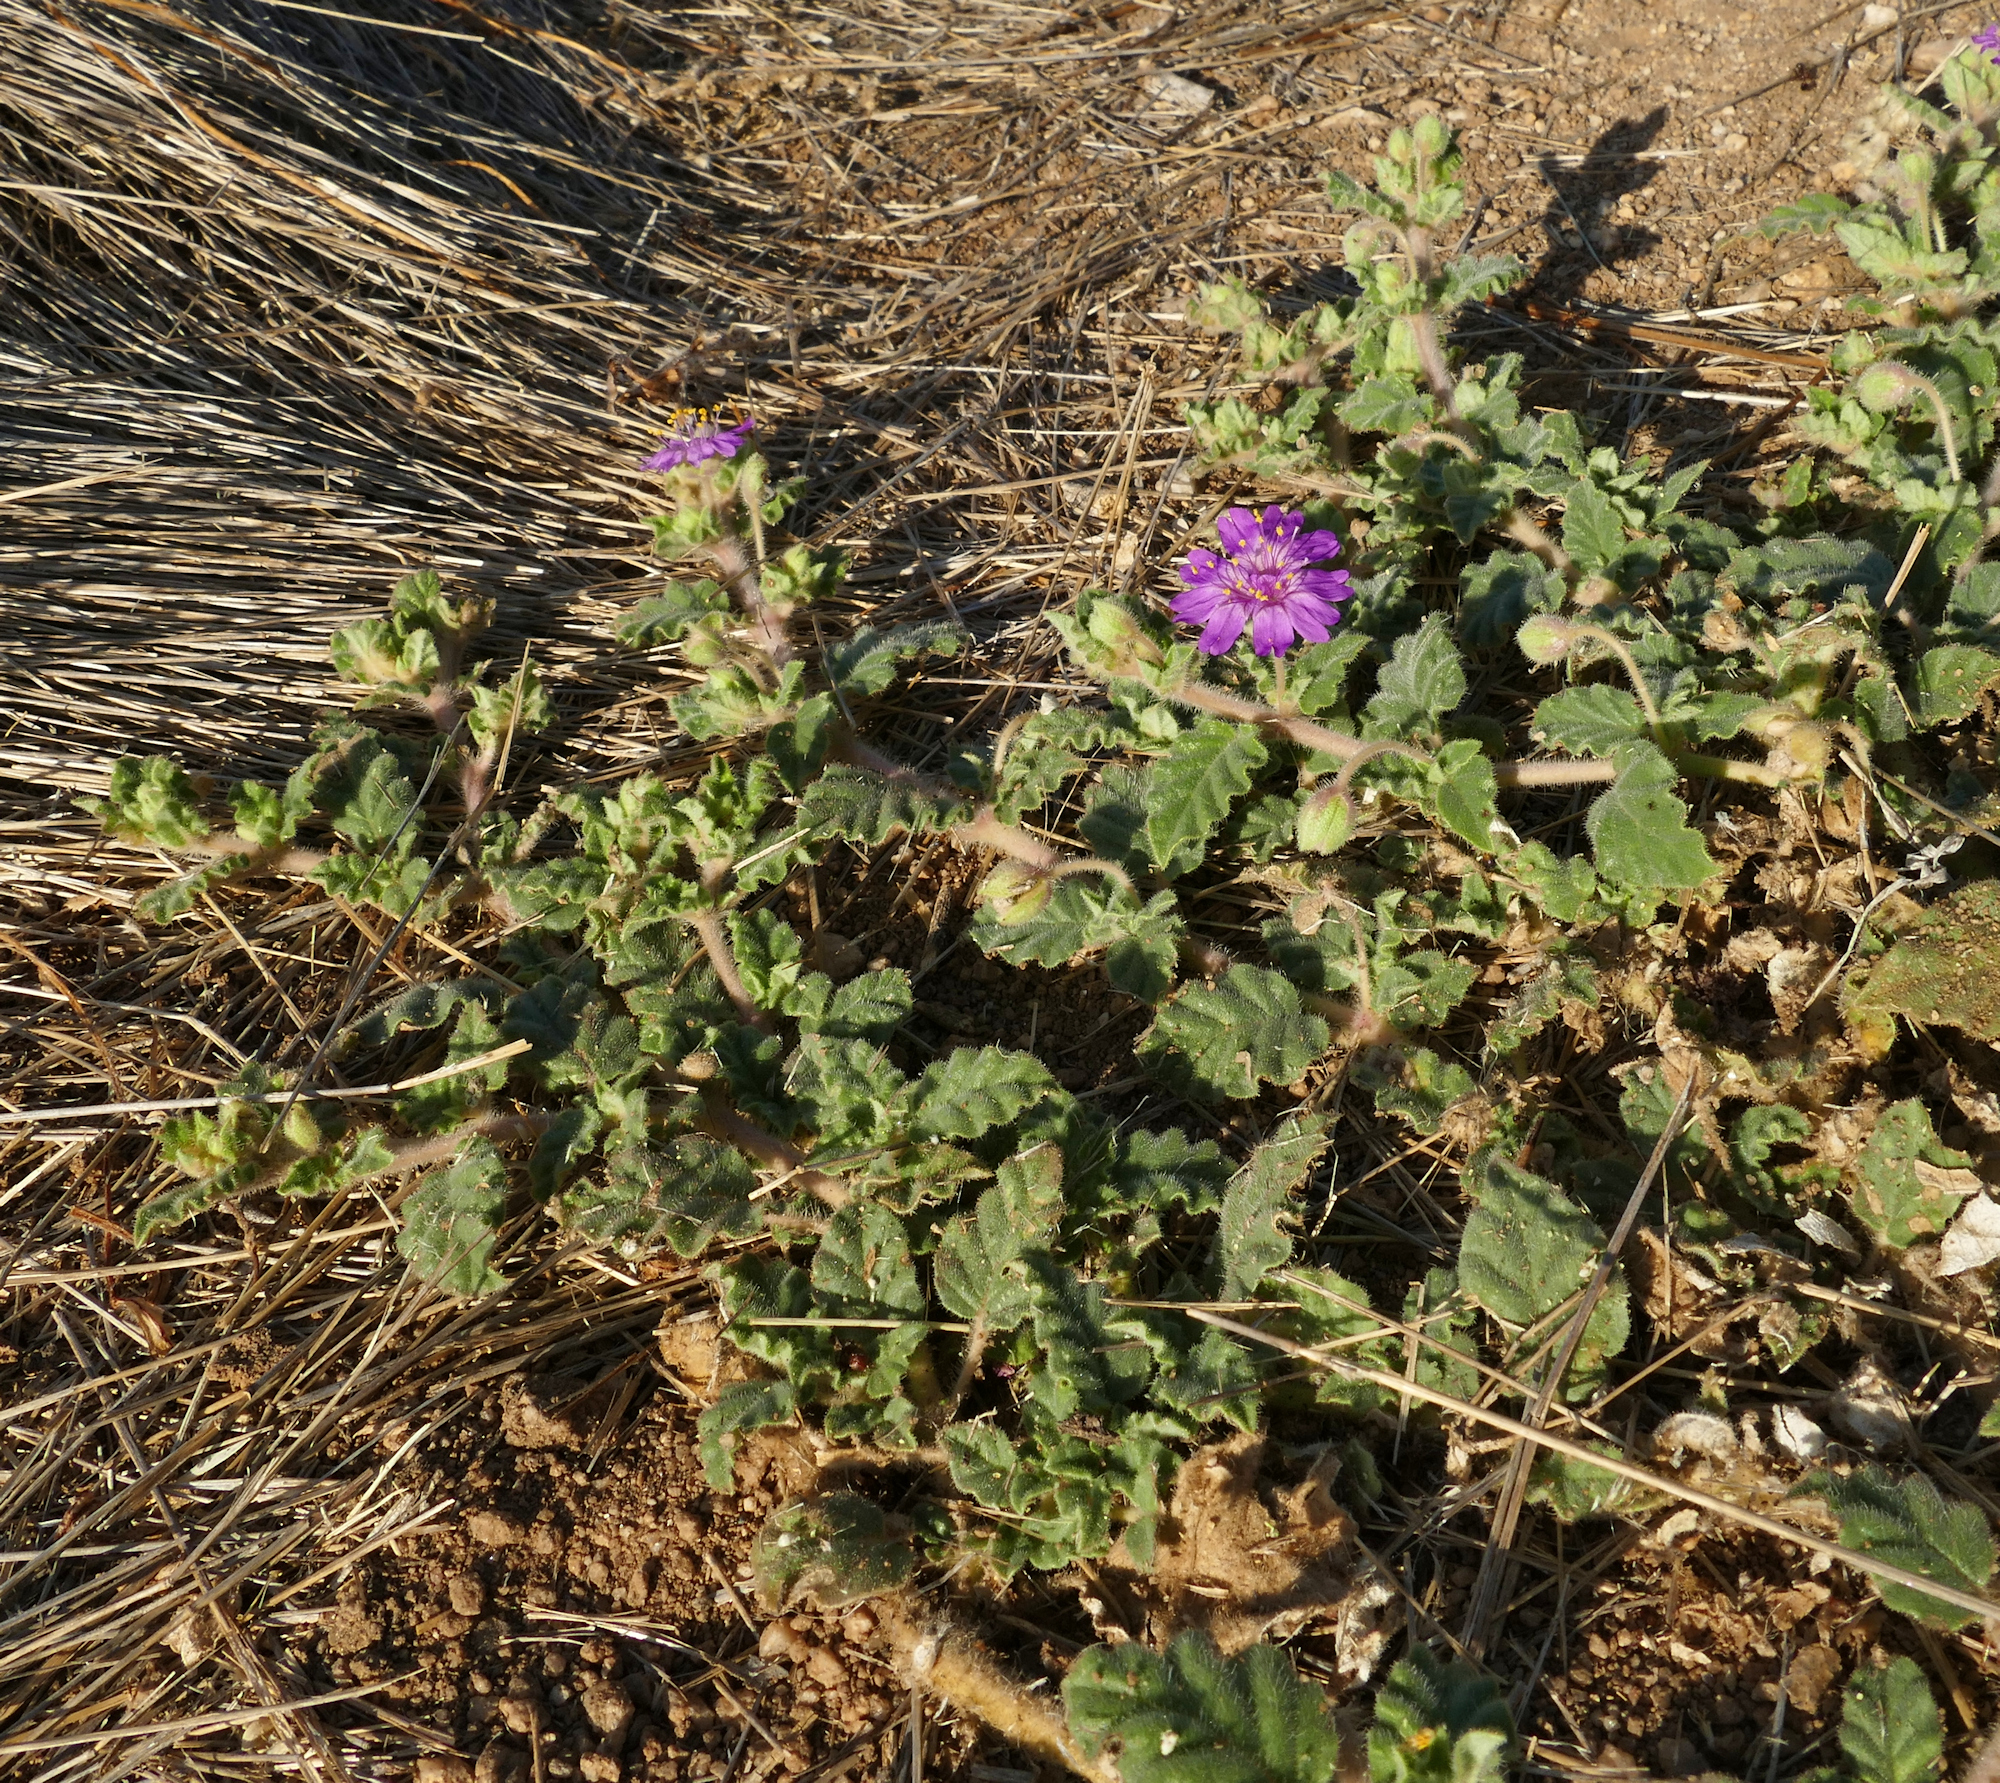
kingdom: Plantae
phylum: Tracheophyta
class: Magnoliopsida
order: Caryophyllales
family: Nyctaginaceae
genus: Allionia
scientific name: Allionia incarnata
